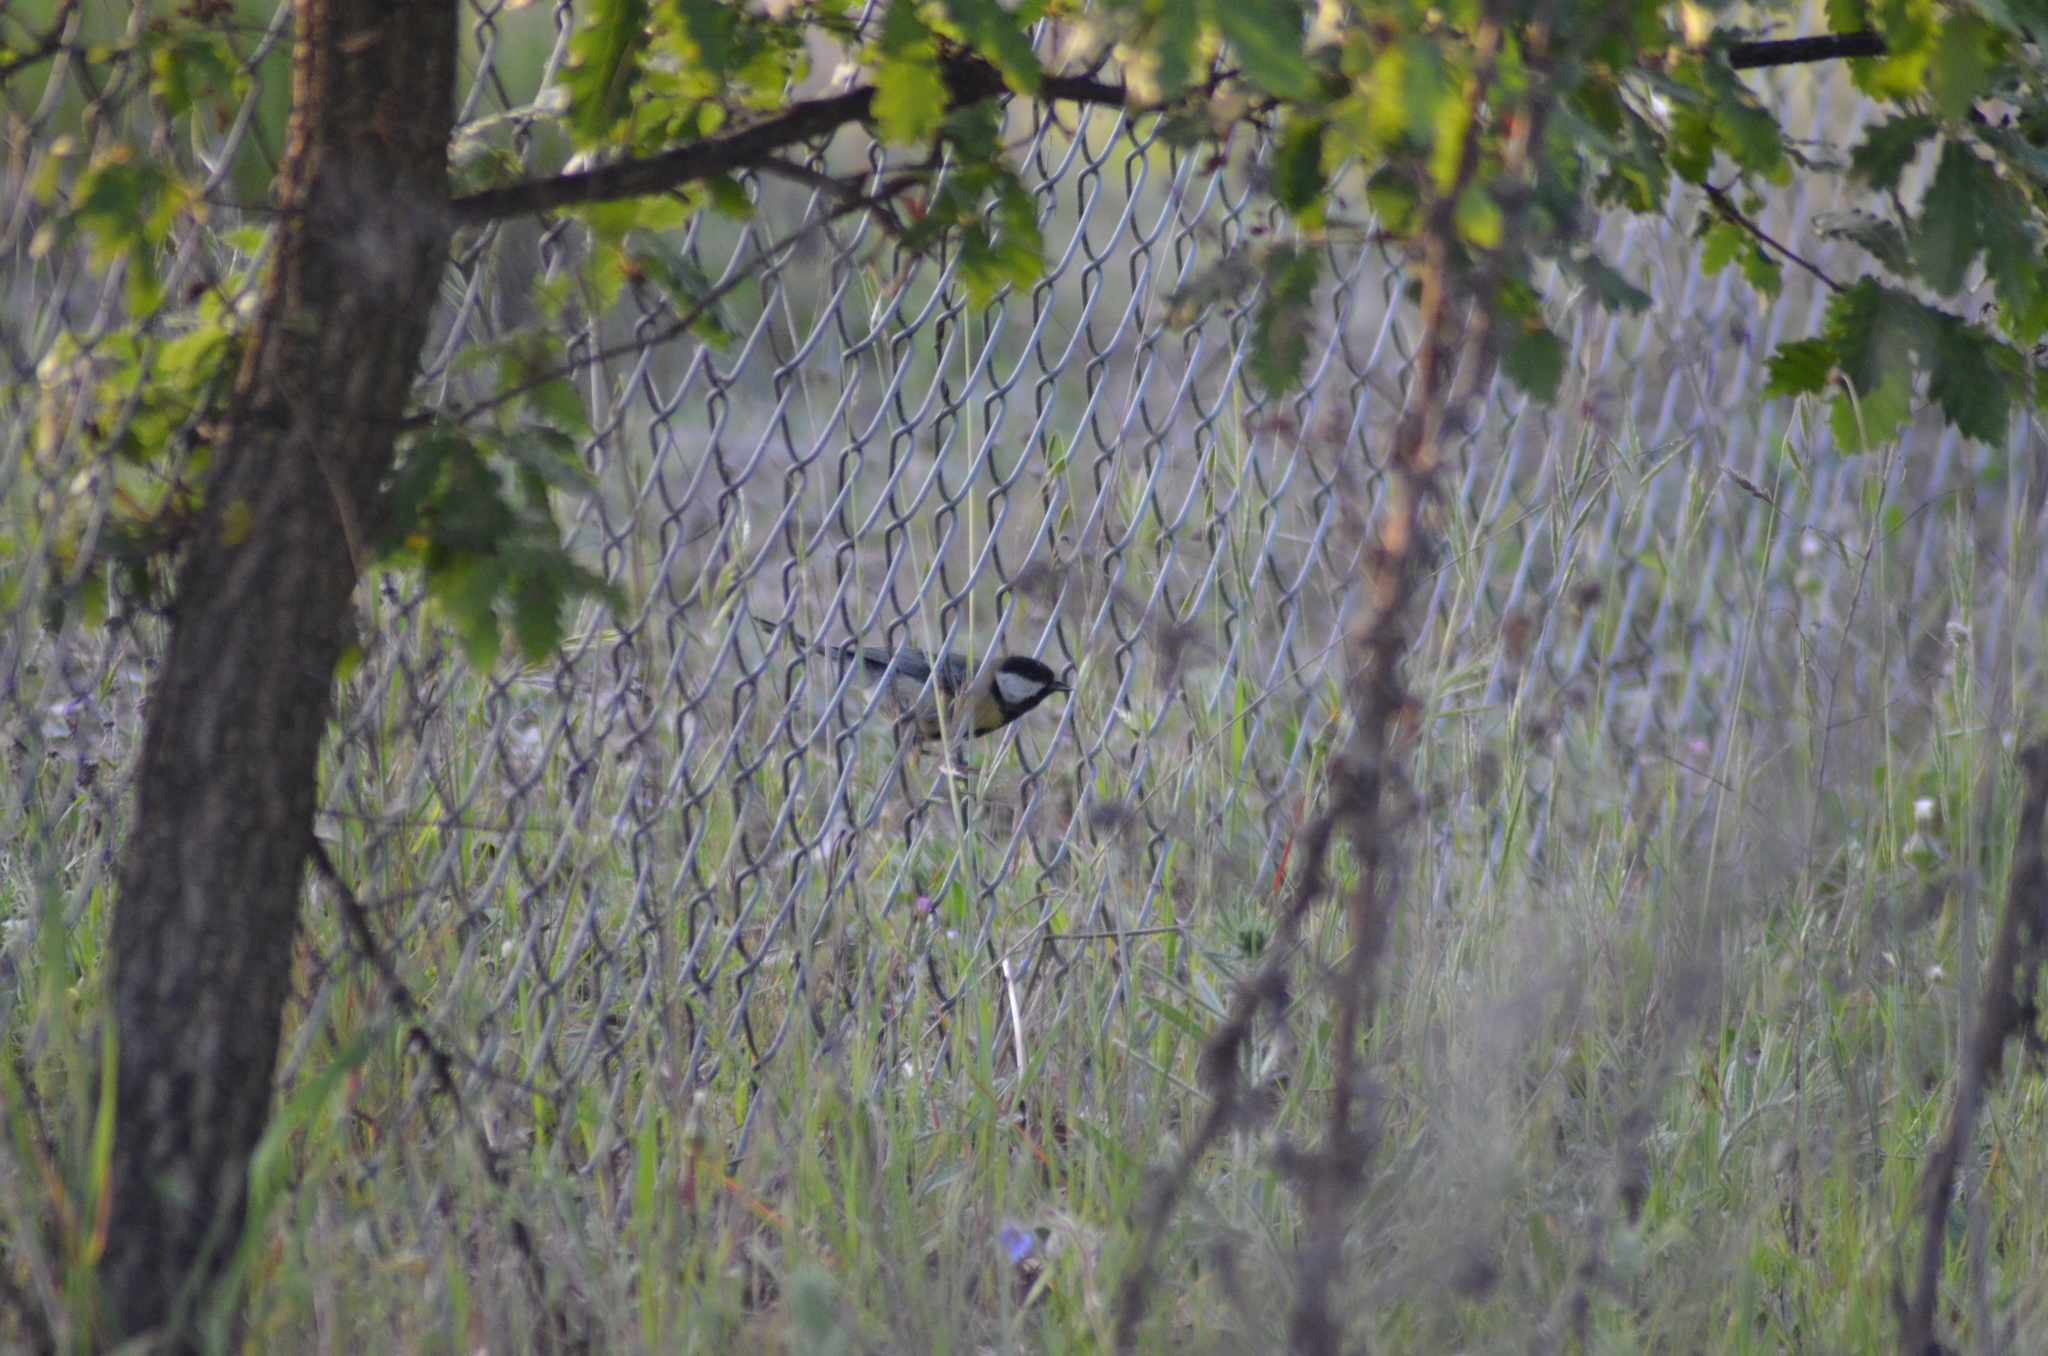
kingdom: Animalia
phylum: Chordata
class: Aves
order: Passeriformes
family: Paridae
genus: Parus
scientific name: Parus major
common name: Great tit
